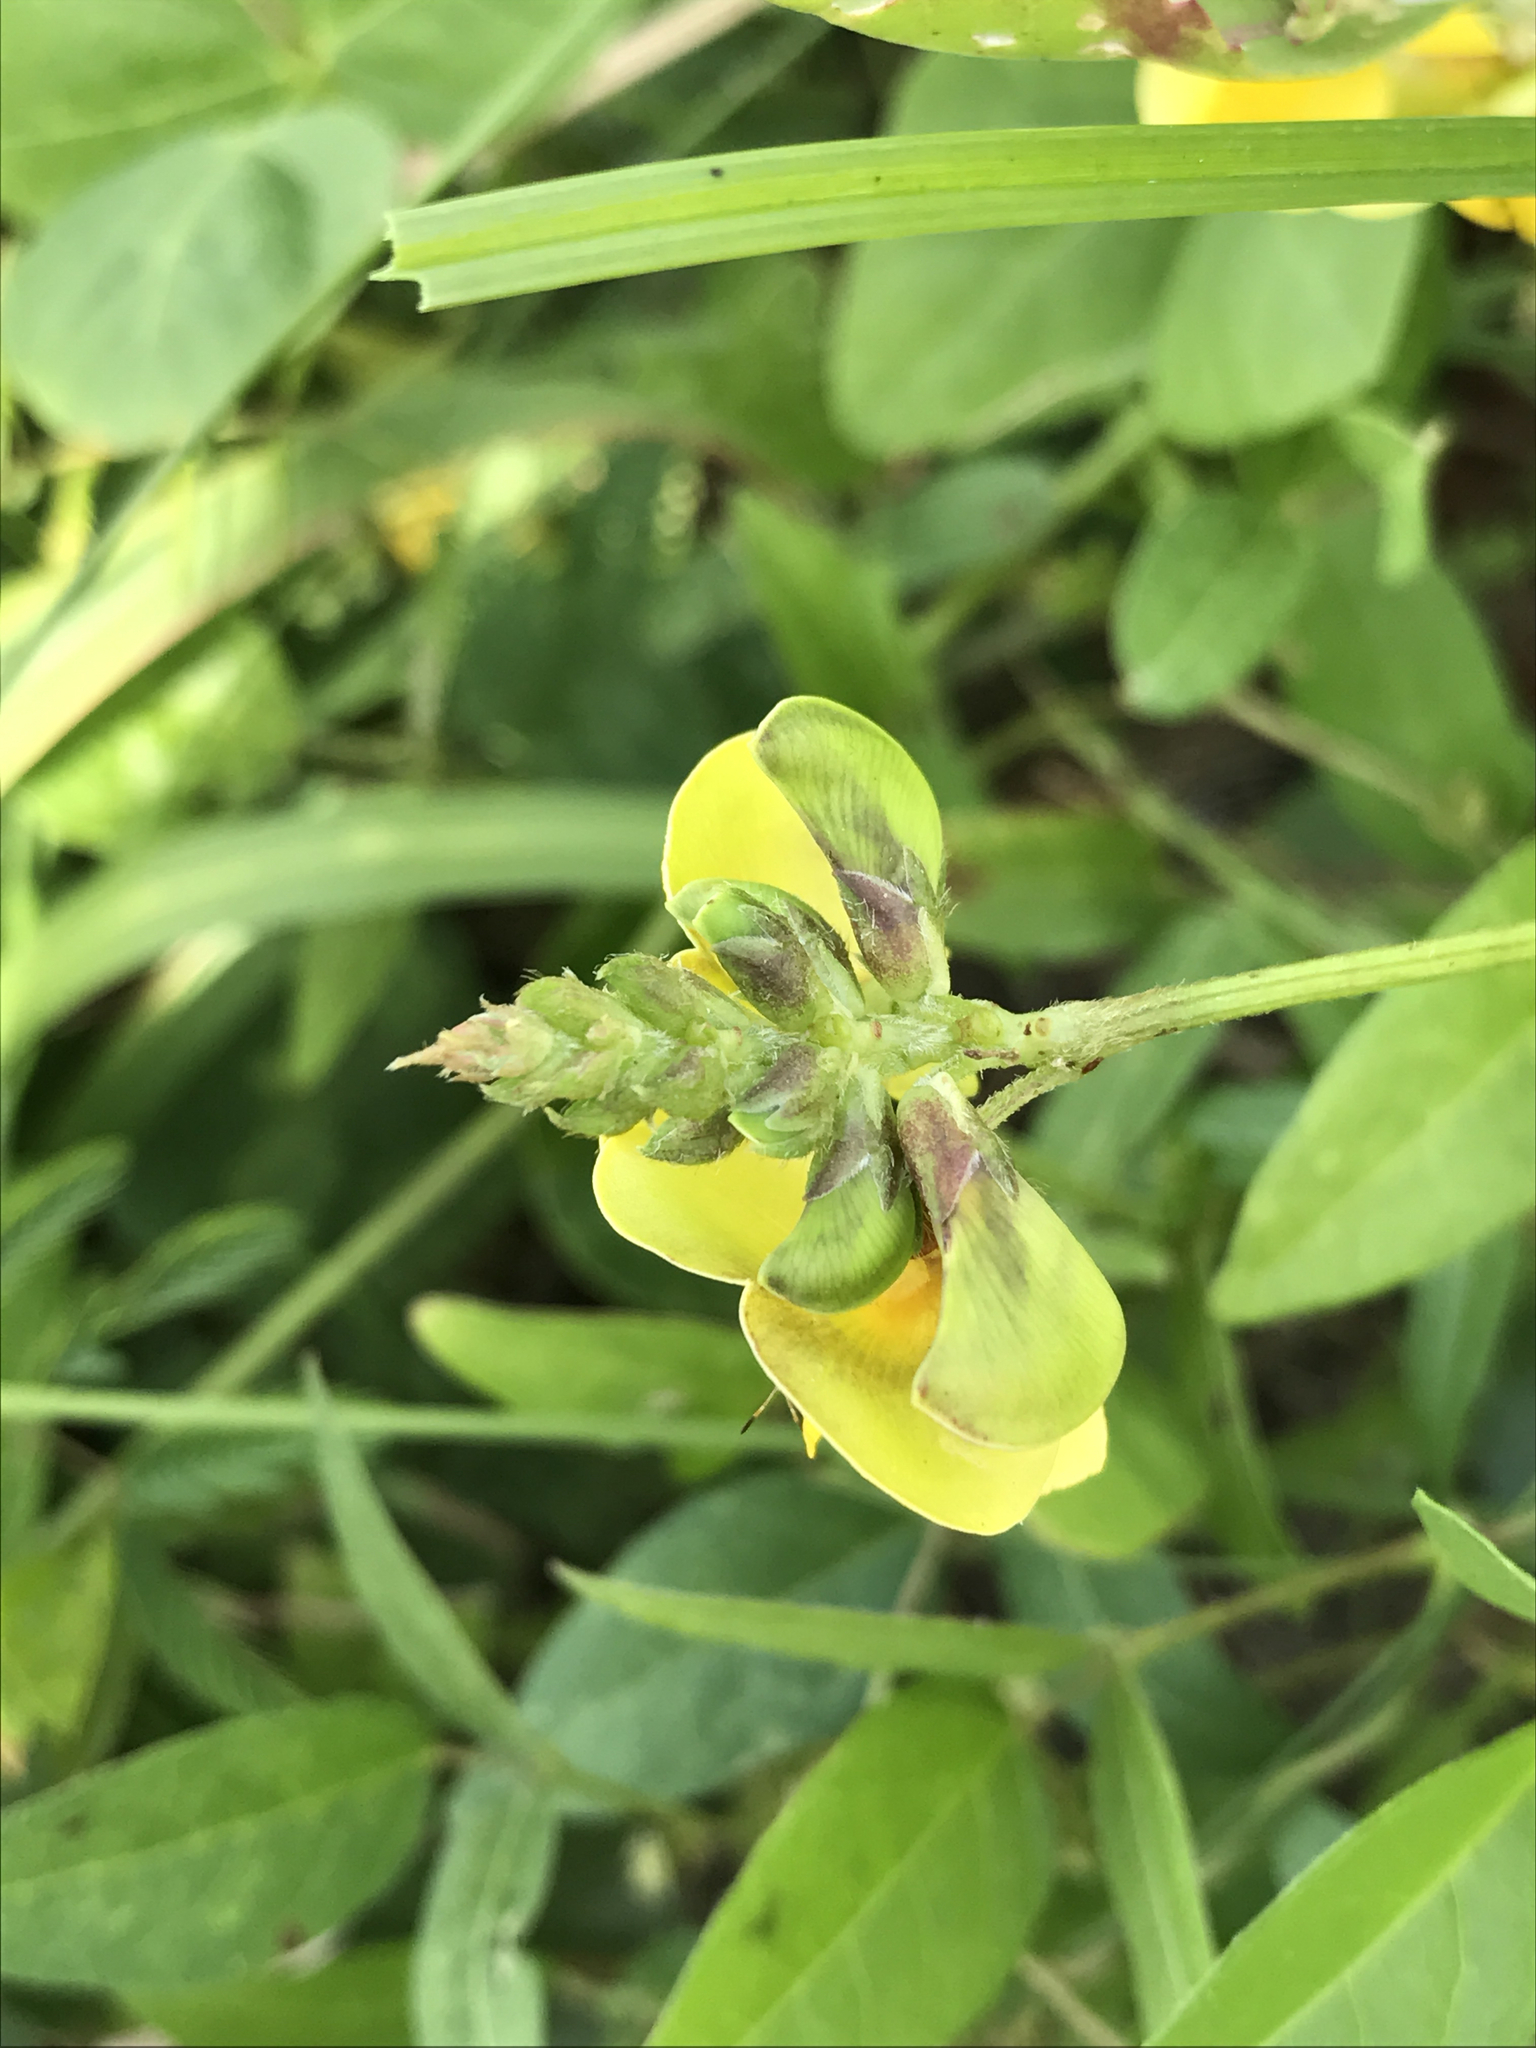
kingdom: Plantae
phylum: Tracheophyta
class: Magnoliopsida
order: Fabales
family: Fabaceae
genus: Vigna
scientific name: Vigna luteola
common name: Hairypod cowpea
